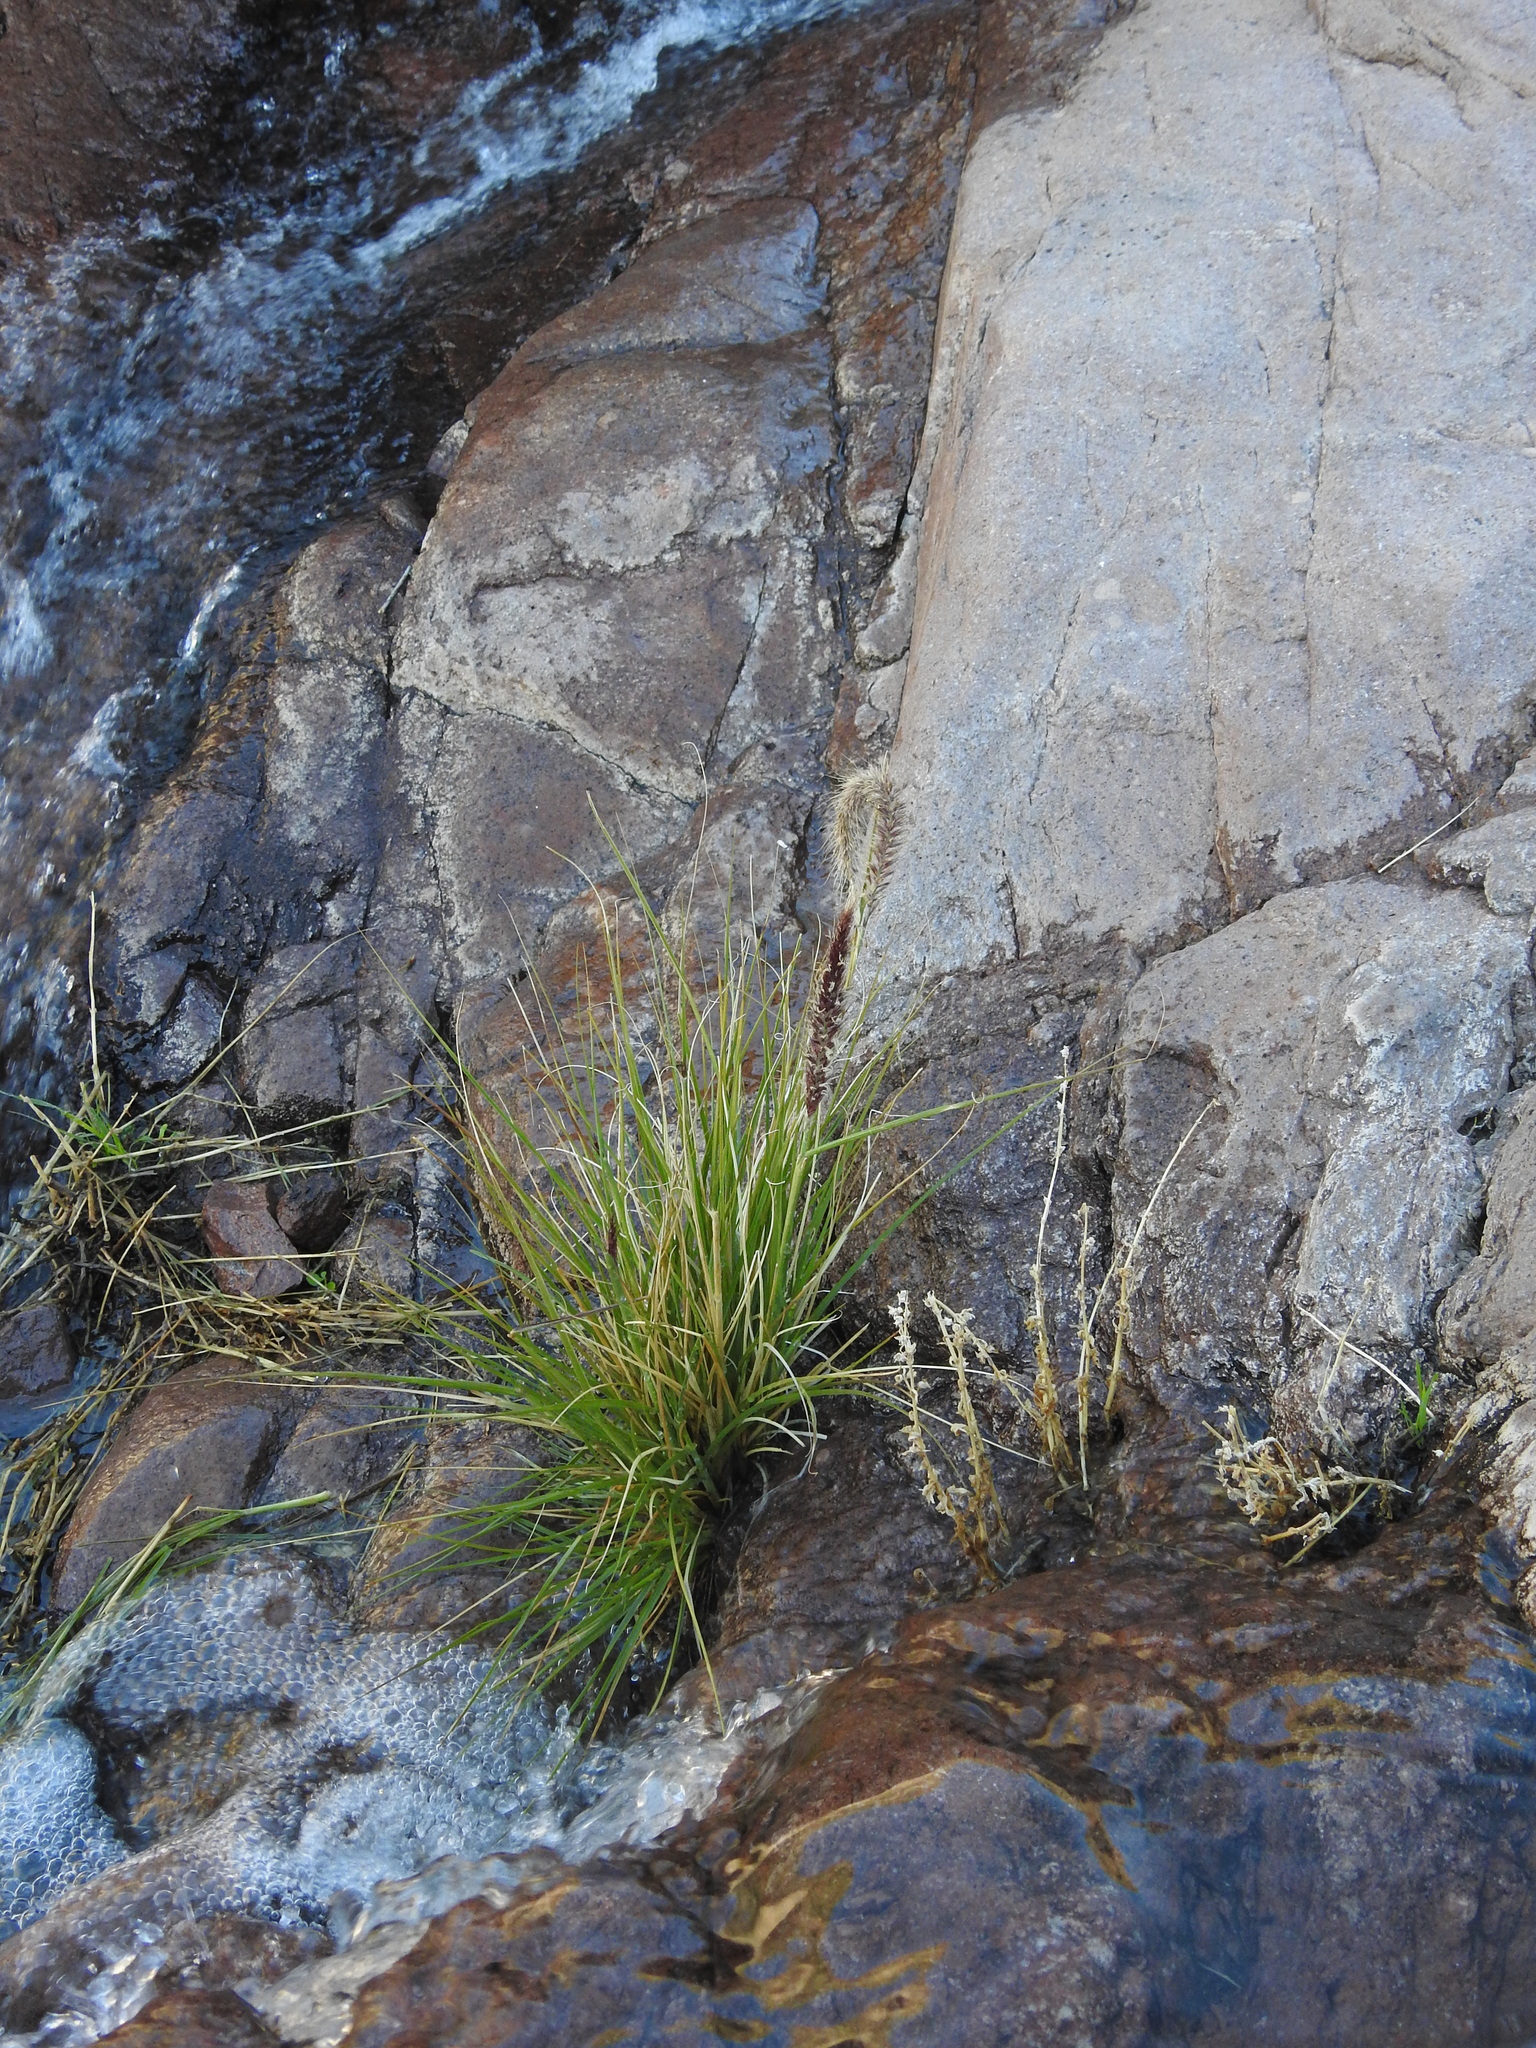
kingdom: Plantae
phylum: Tracheophyta
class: Liliopsida
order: Poales
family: Poaceae
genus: Cenchrus
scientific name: Cenchrus setaceus
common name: Crimson fountaingrass
